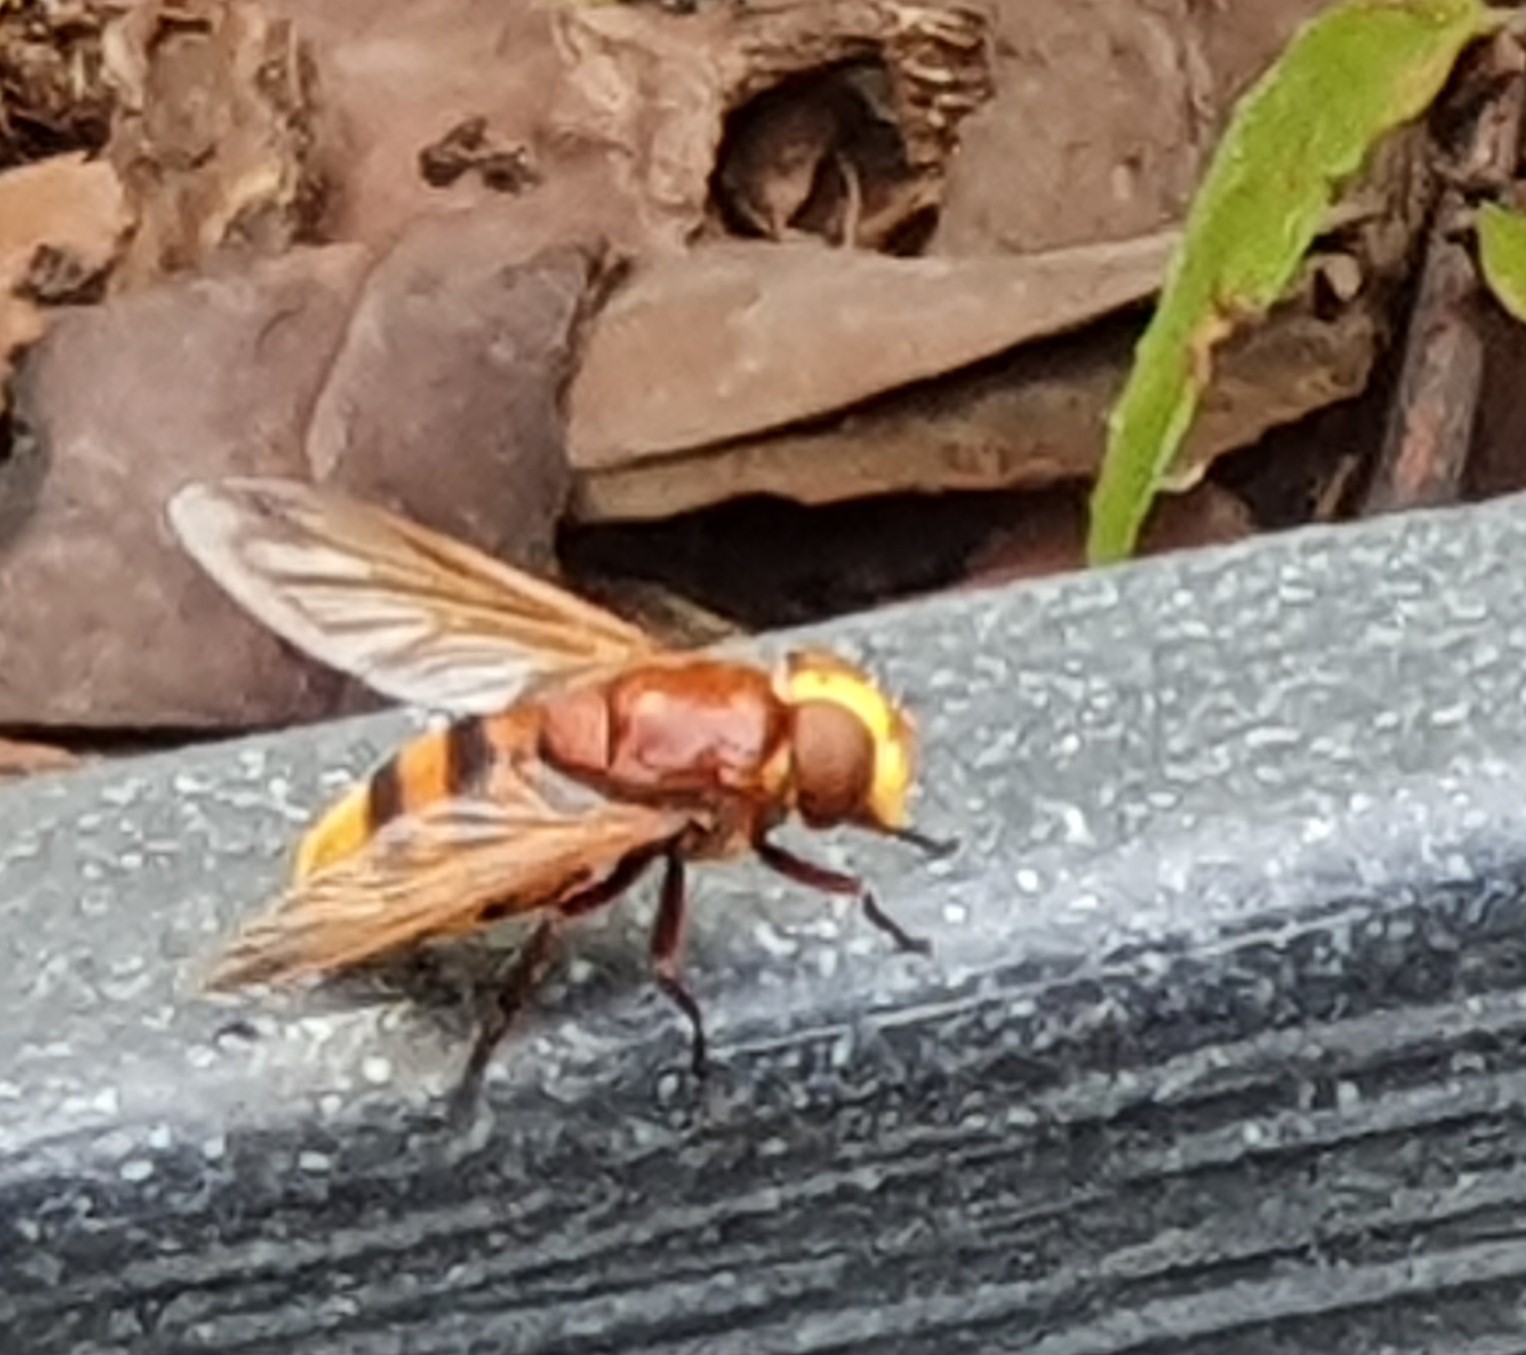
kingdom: Animalia
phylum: Arthropoda
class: Insecta
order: Diptera
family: Syrphidae
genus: Volucella
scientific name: Volucella zonaria
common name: Hornet hoverfly
